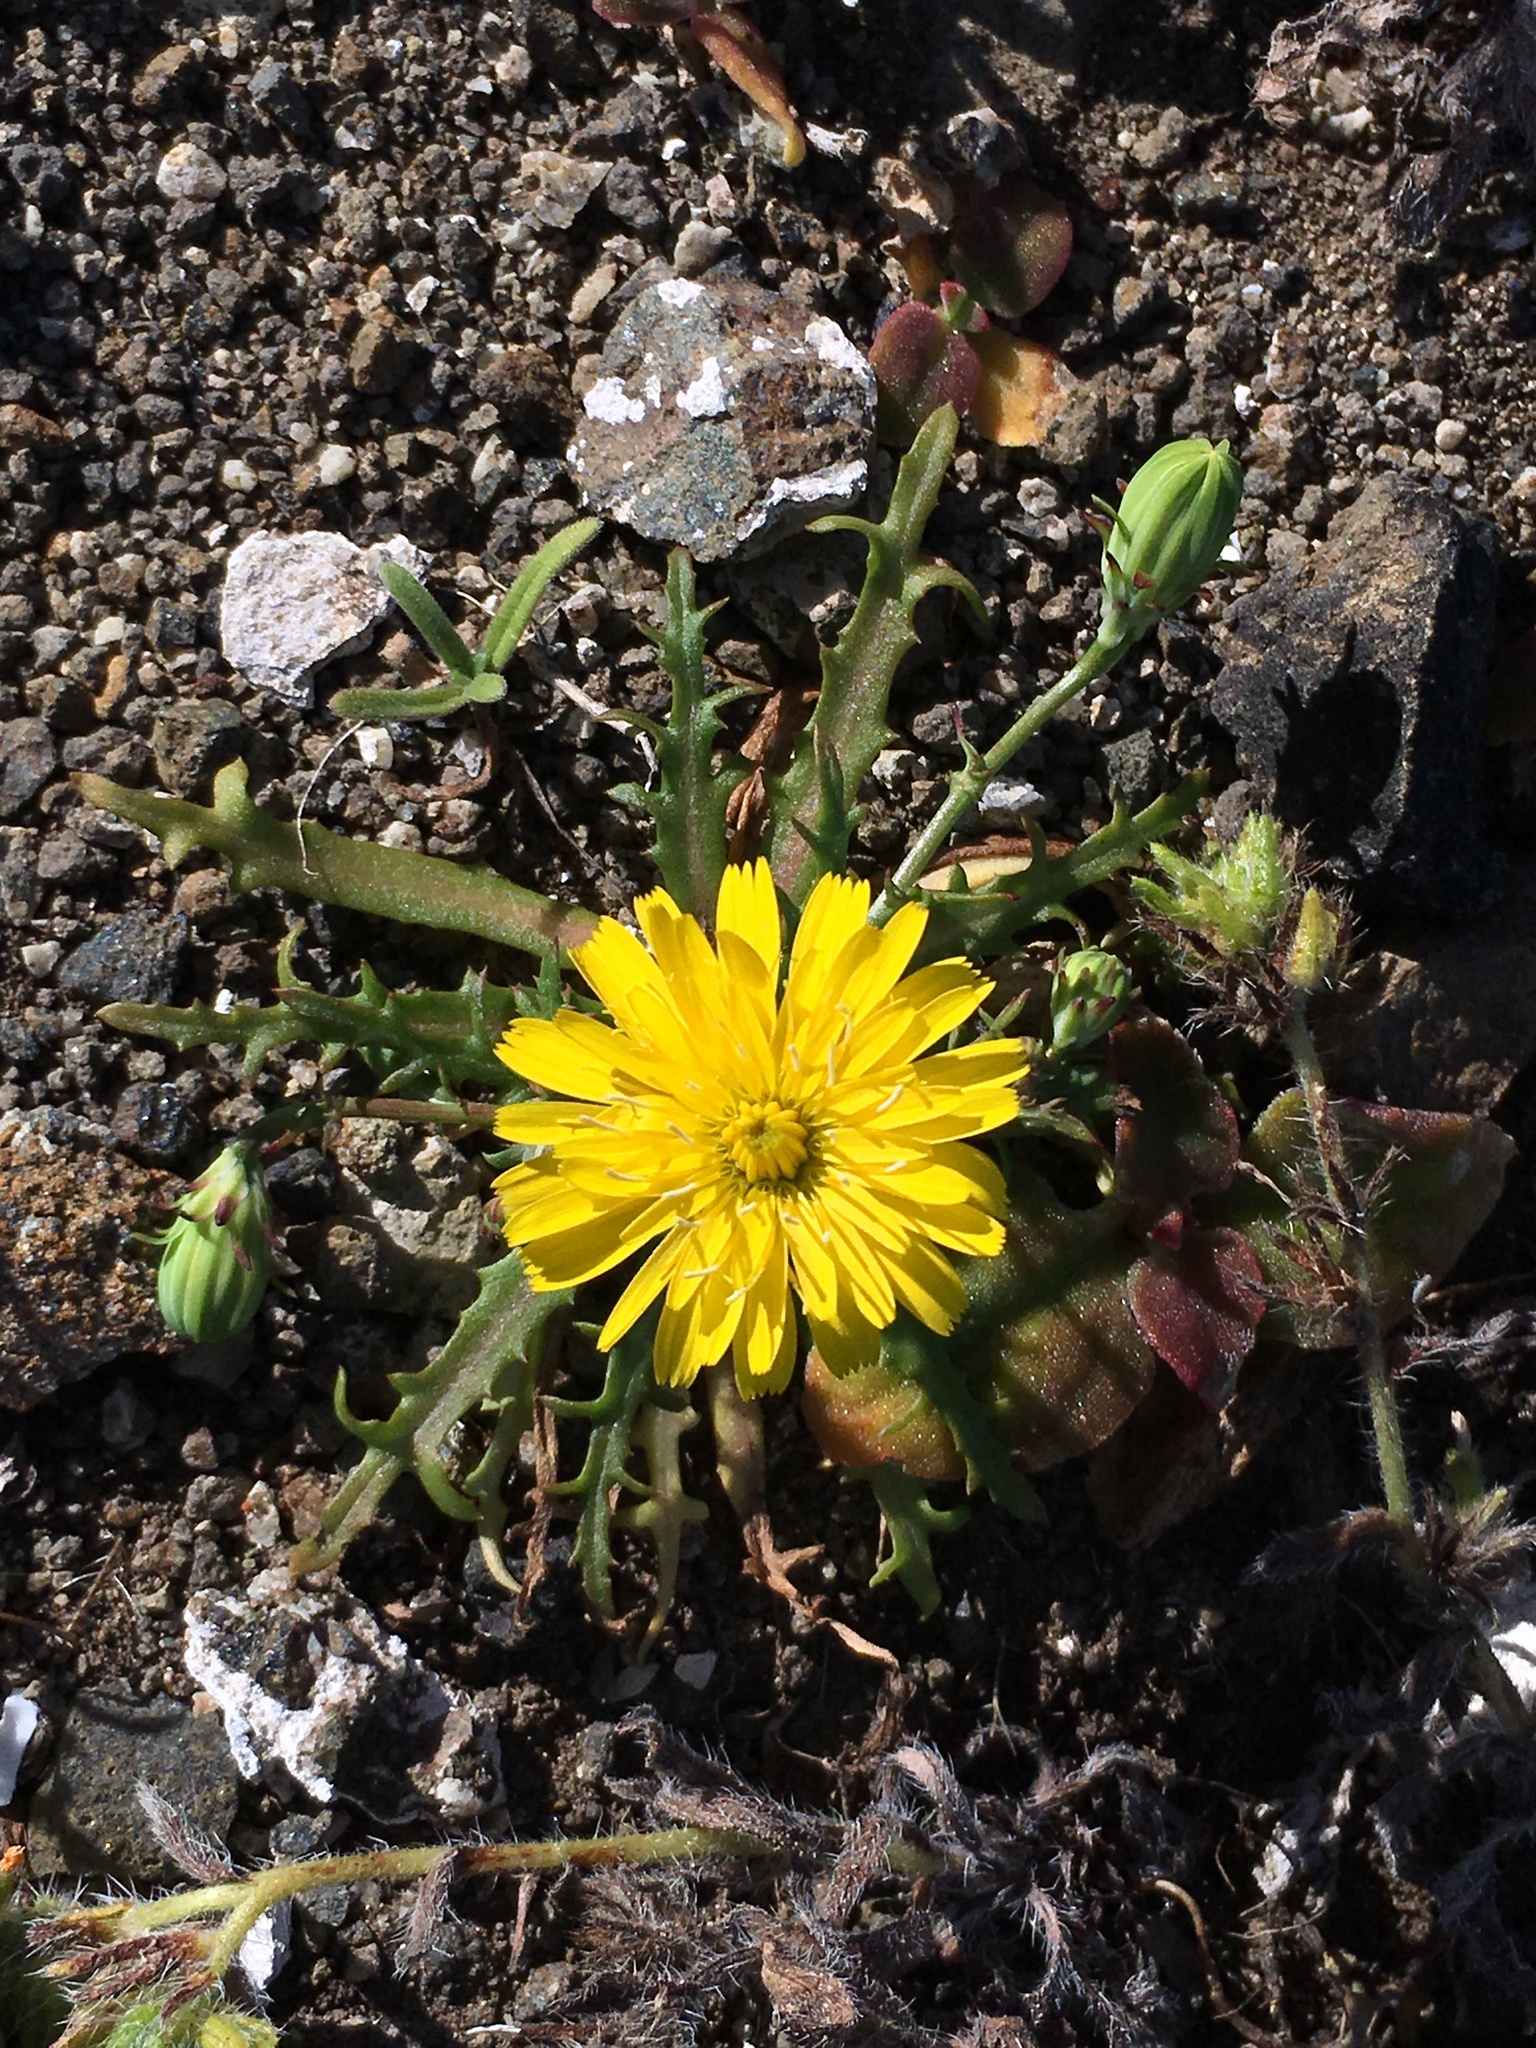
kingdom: Plantae
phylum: Tracheophyta
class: Magnoliopsida
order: Asterales
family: Asteraceae
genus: Malacothrix
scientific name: Malacothrix foliosa
